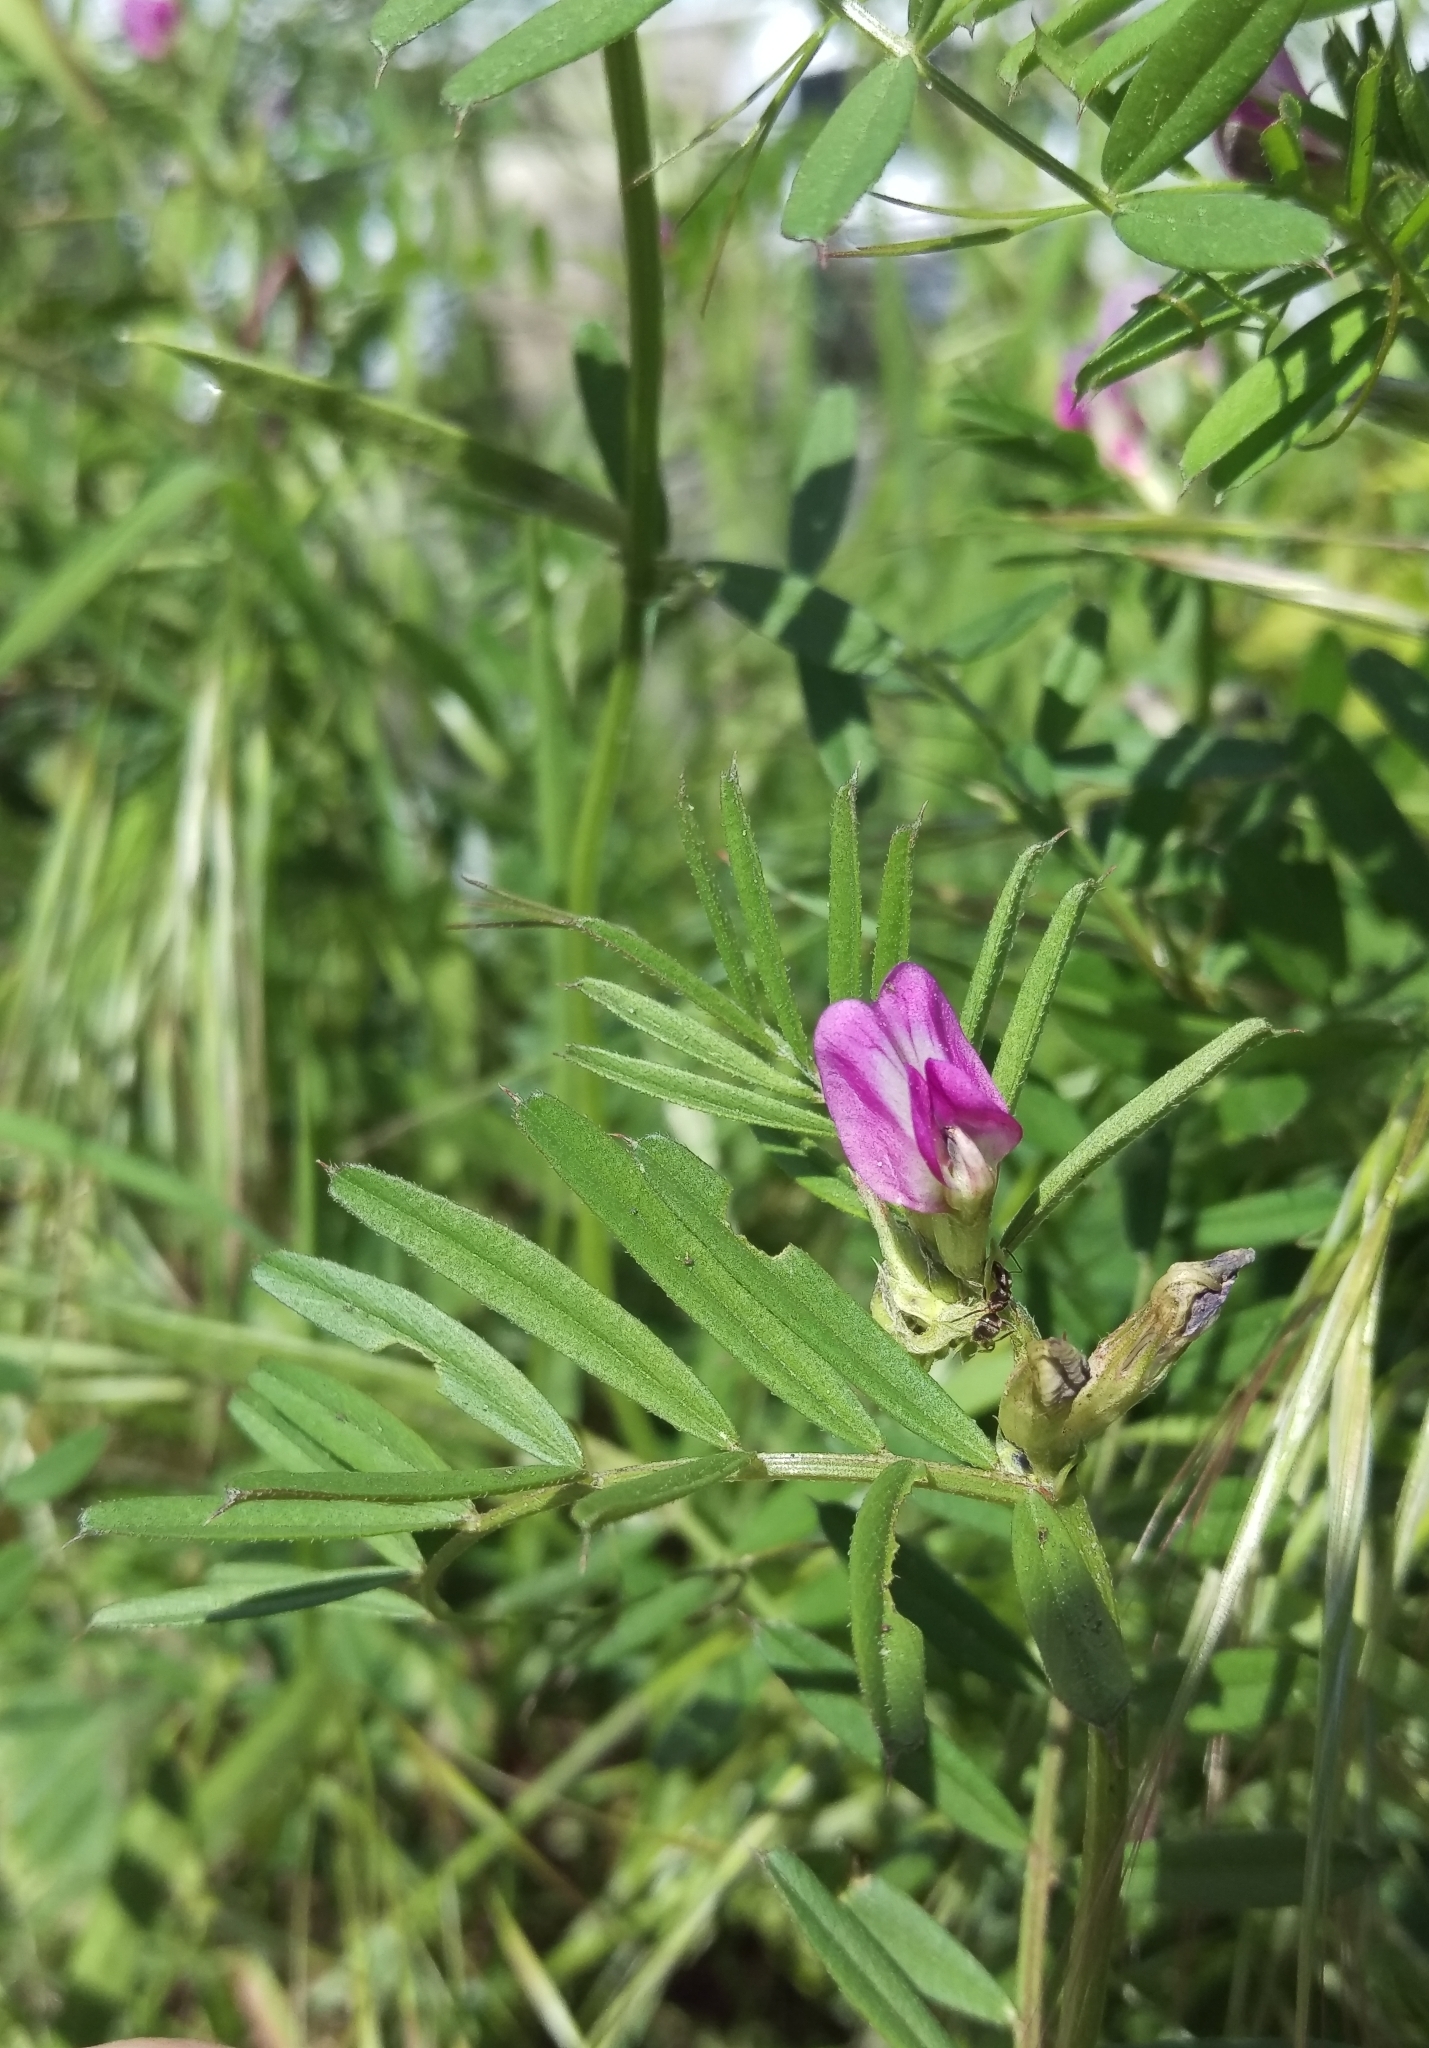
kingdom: Plantae
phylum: Tracheophyta
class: Magnoliopsida
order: Fabales
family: Fabaceae
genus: Vicia
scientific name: Vicia sativa
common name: Garden vetch
